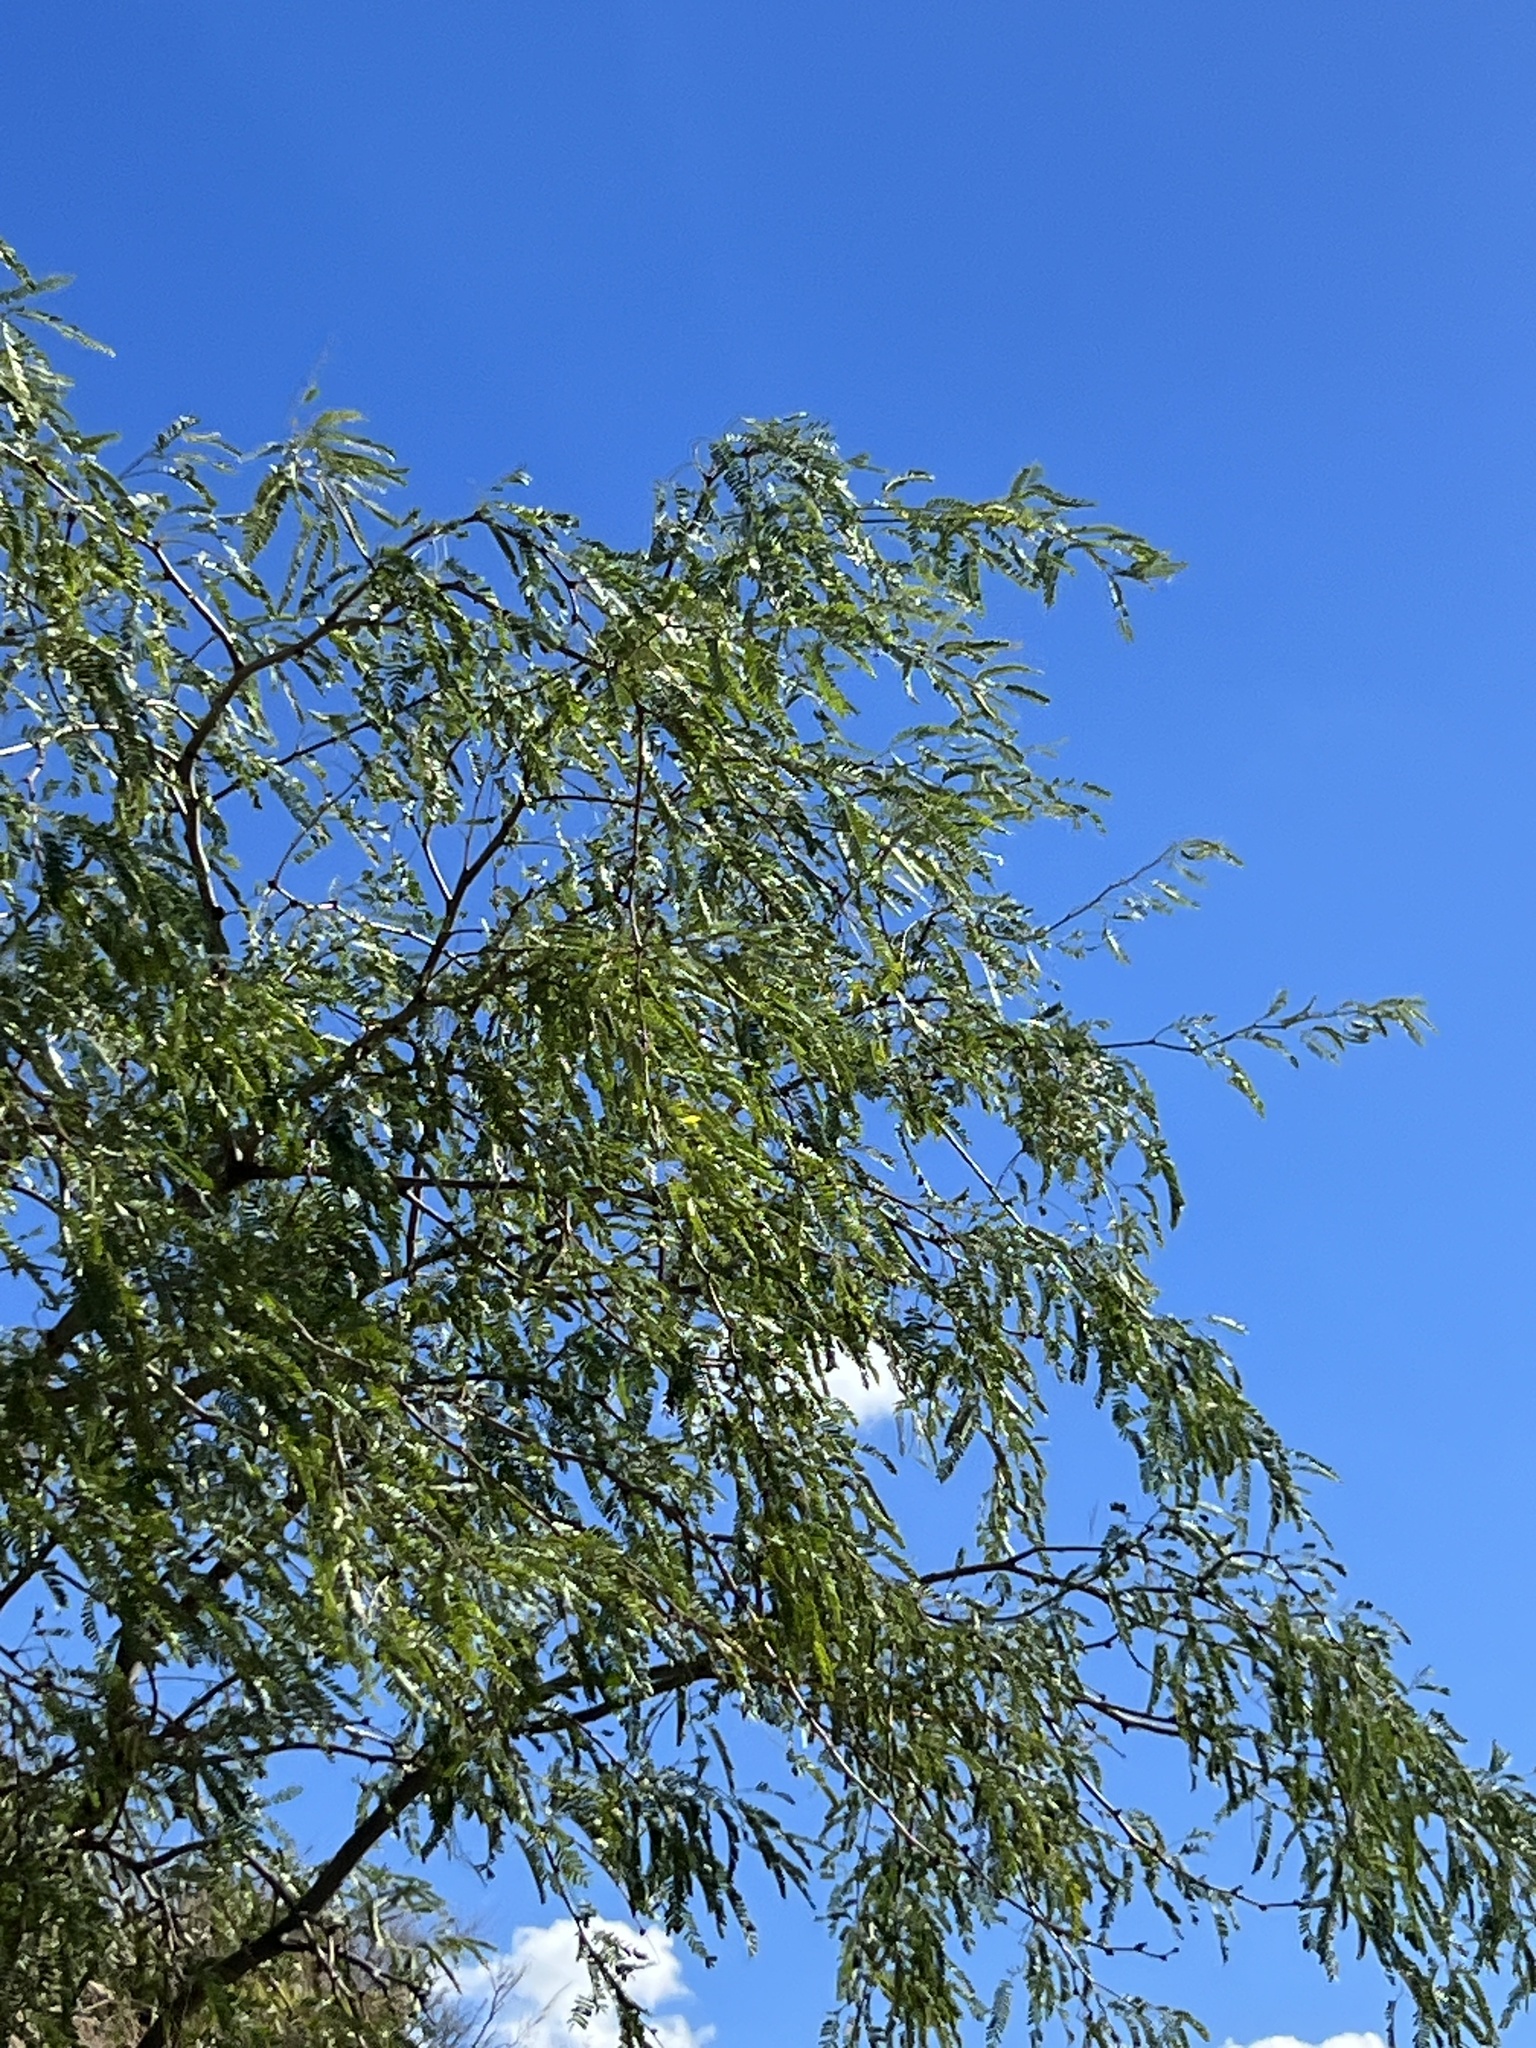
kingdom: Plantae
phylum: Tracheophyta
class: Magnoliopsida
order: Fabales
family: Fabaceae
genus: Prosopis
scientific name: Prosopis velutina
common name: Velvet mesquite
